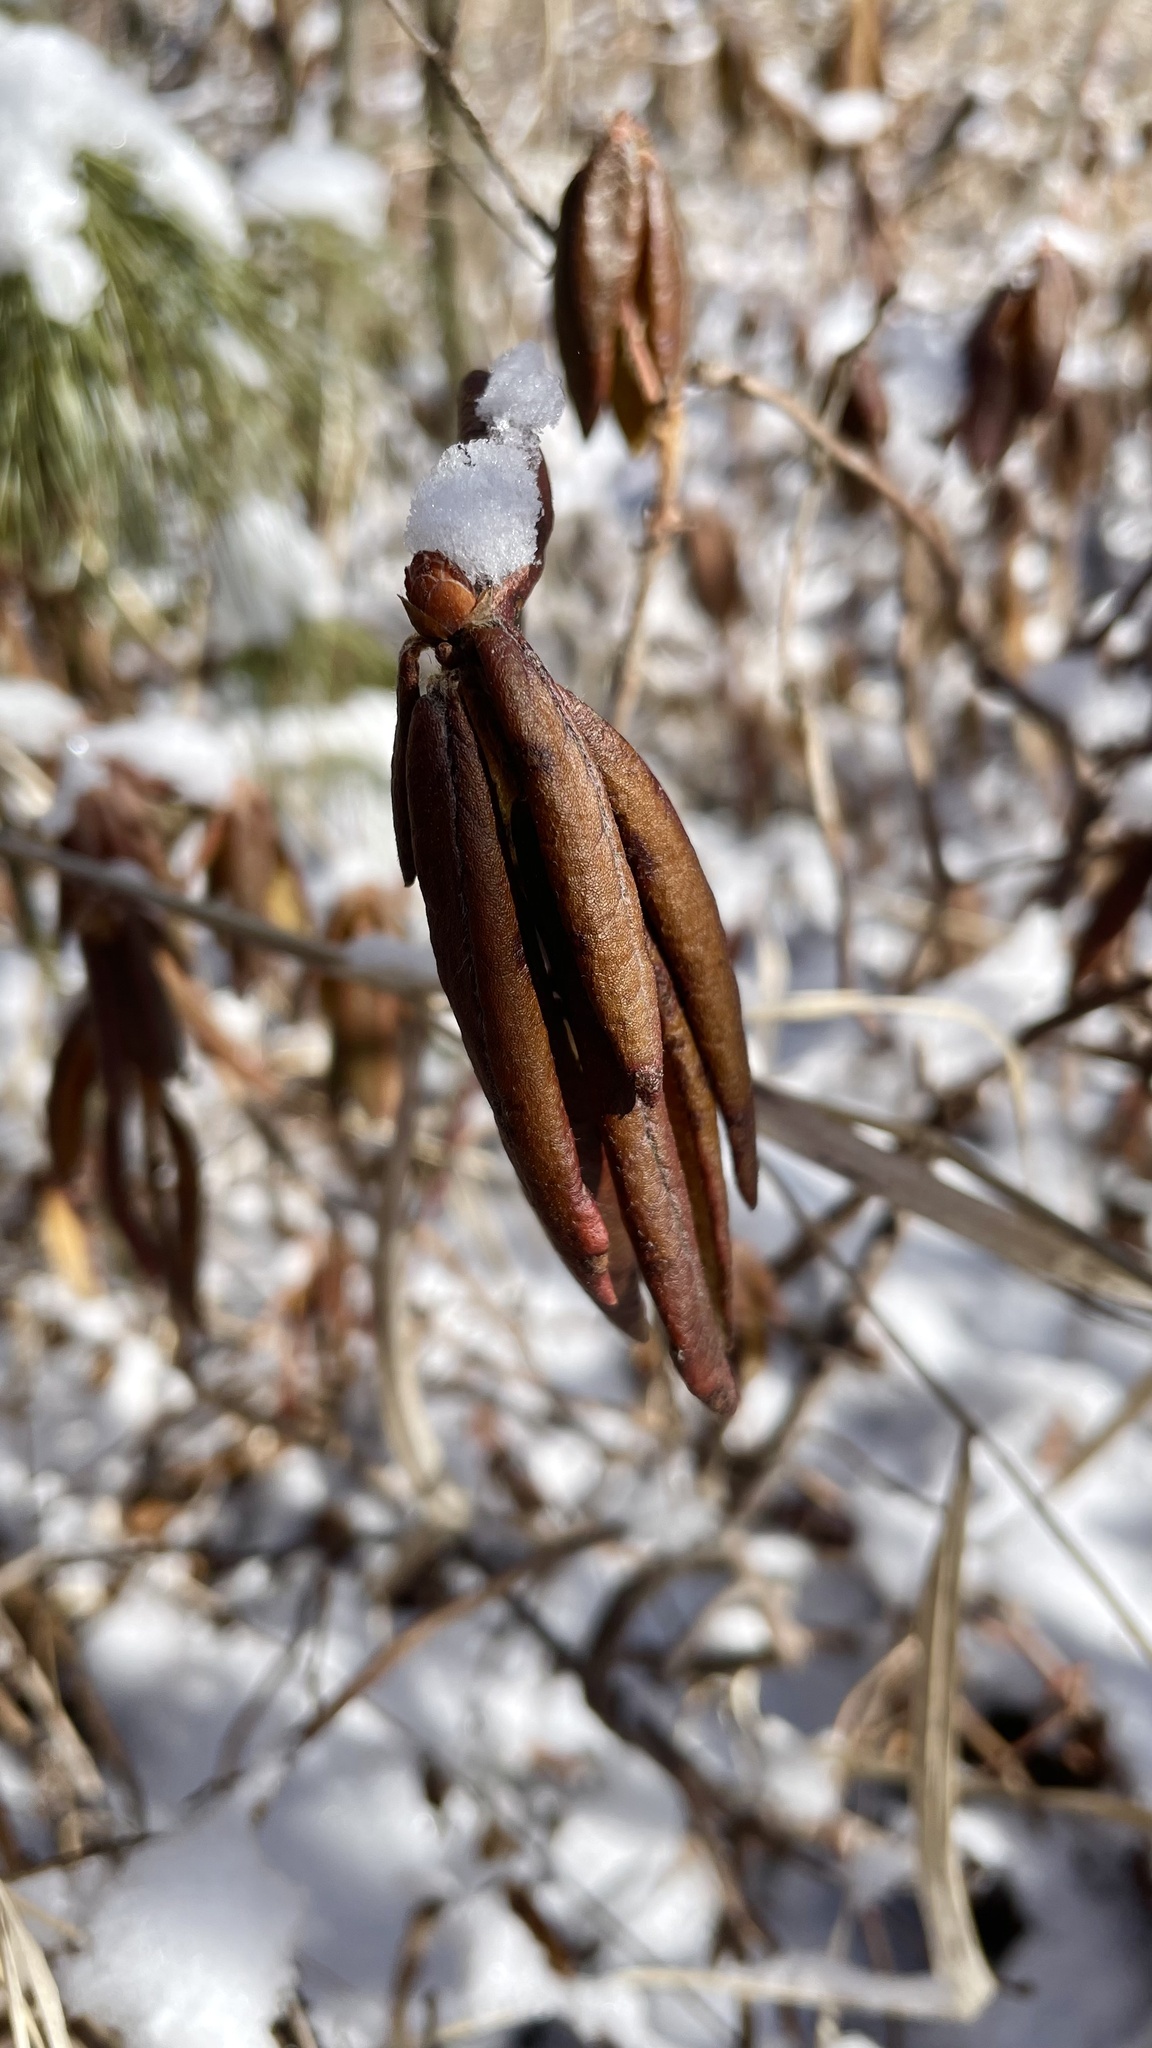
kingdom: Plantae
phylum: Tracheophyta
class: Magnoliopsida
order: Ericales
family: Ericaceae
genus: Rhododendron
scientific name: Rhododendron groenlandicum
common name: Bog labrador tea
